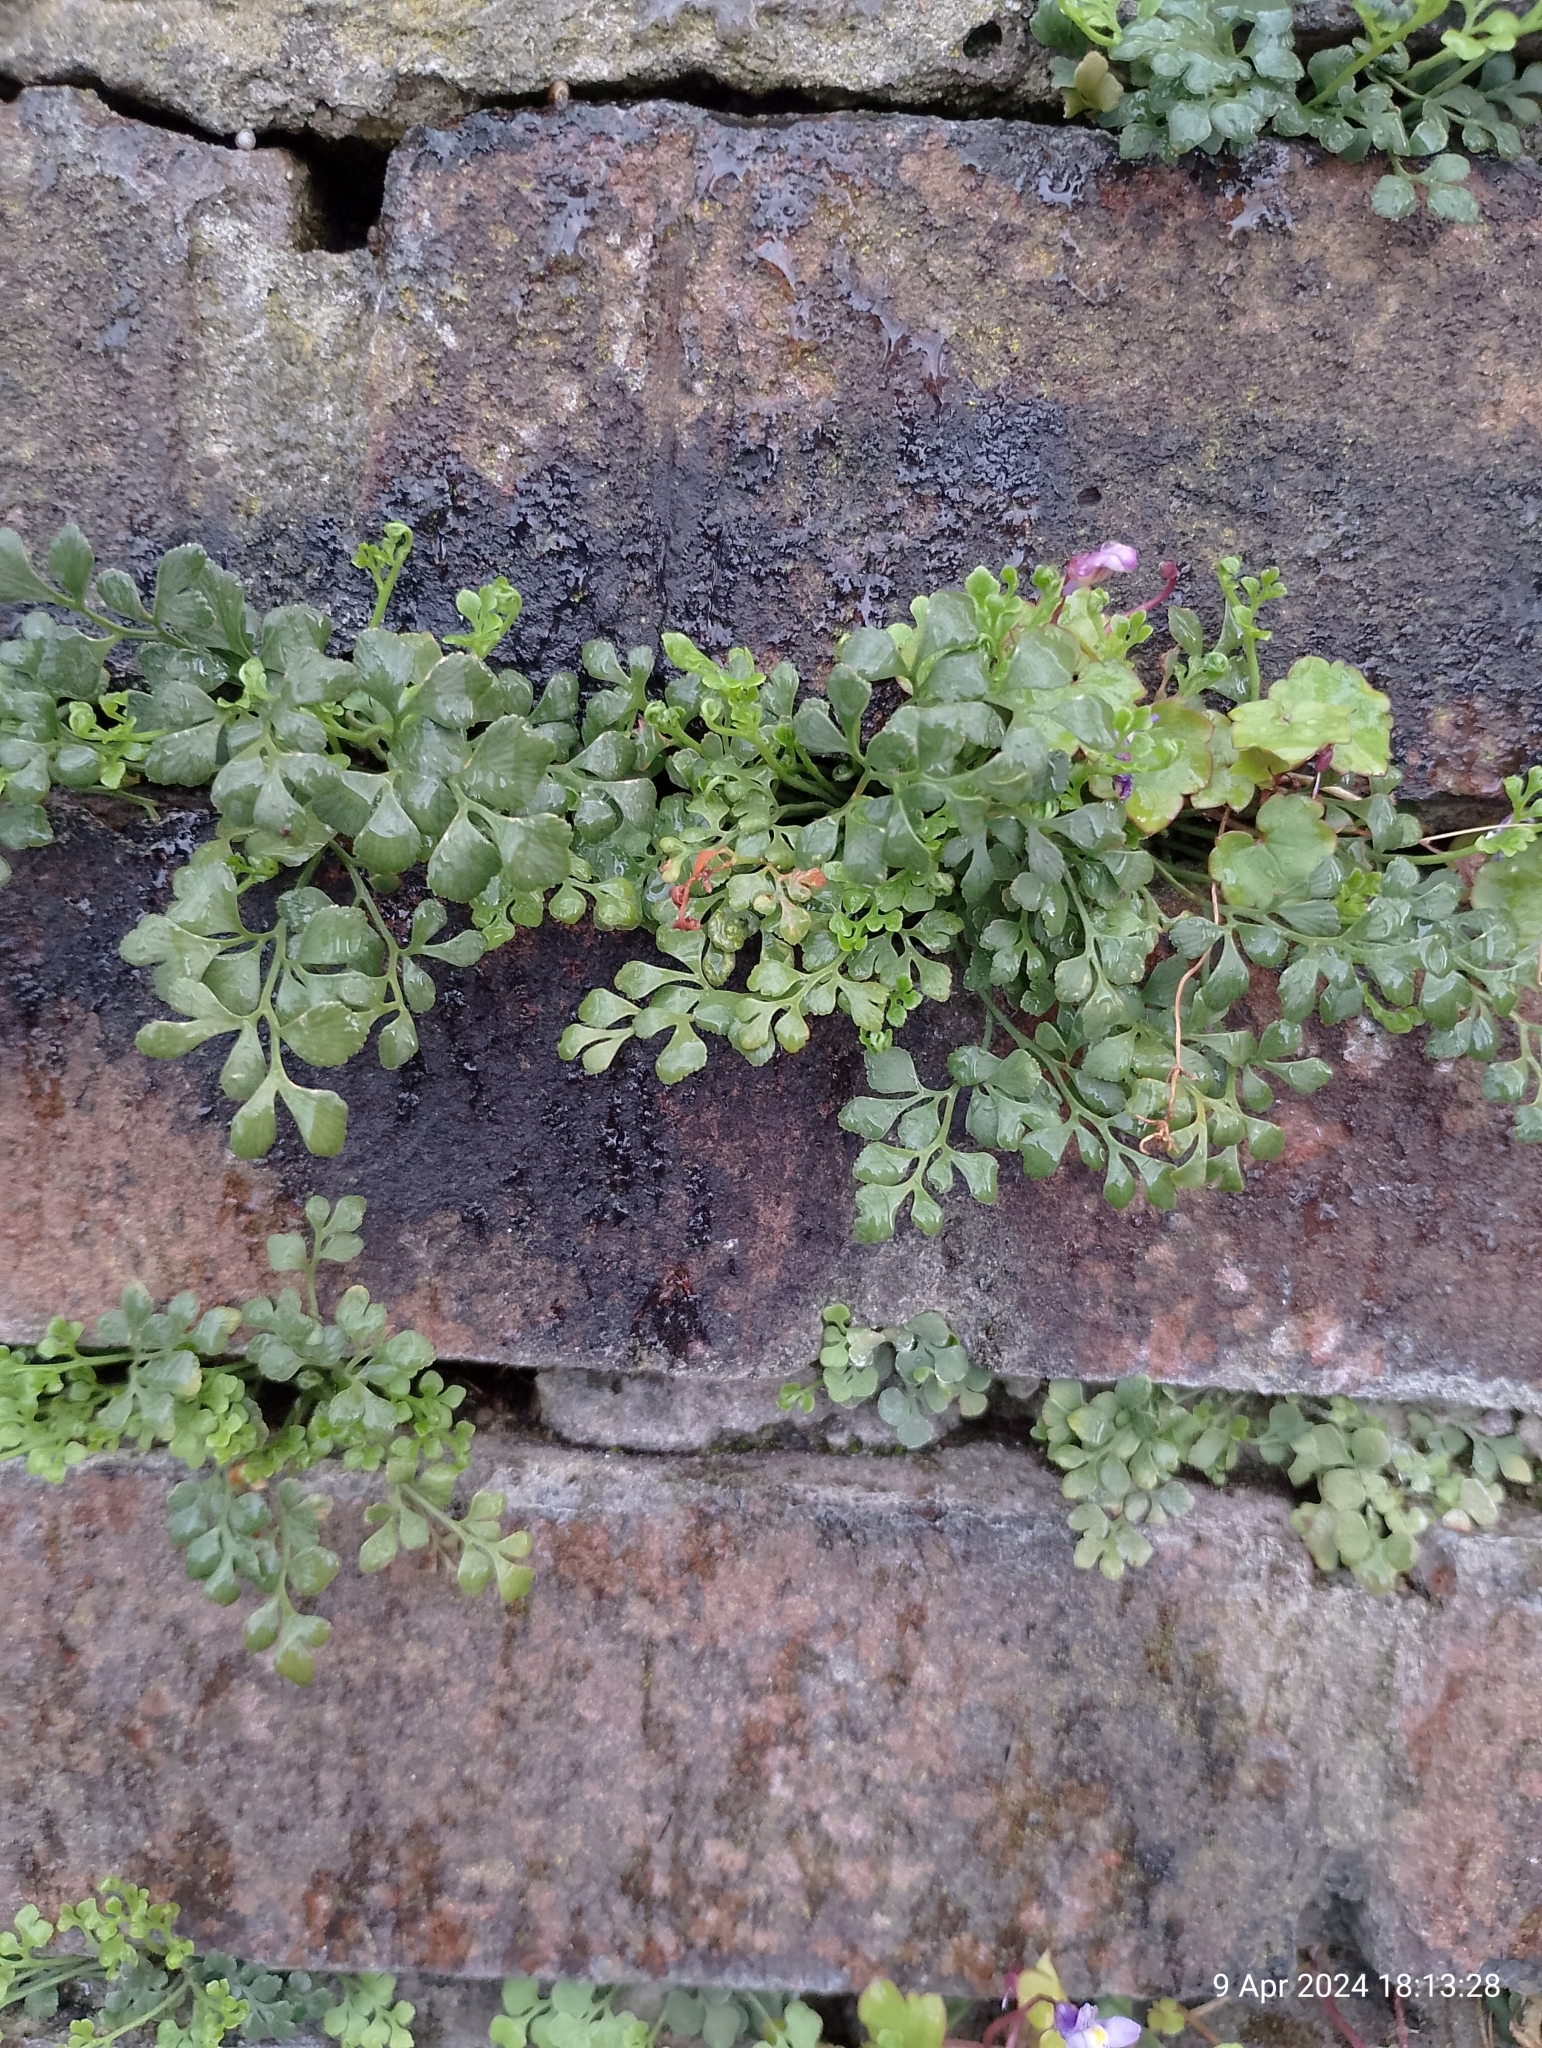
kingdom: Plantae
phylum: Tracheophyta
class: Polypodiopsida
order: Polypodiales
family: Aspleniaceae
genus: Asplenium
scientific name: Asplenium ruta-muraria
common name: Wall-rue
